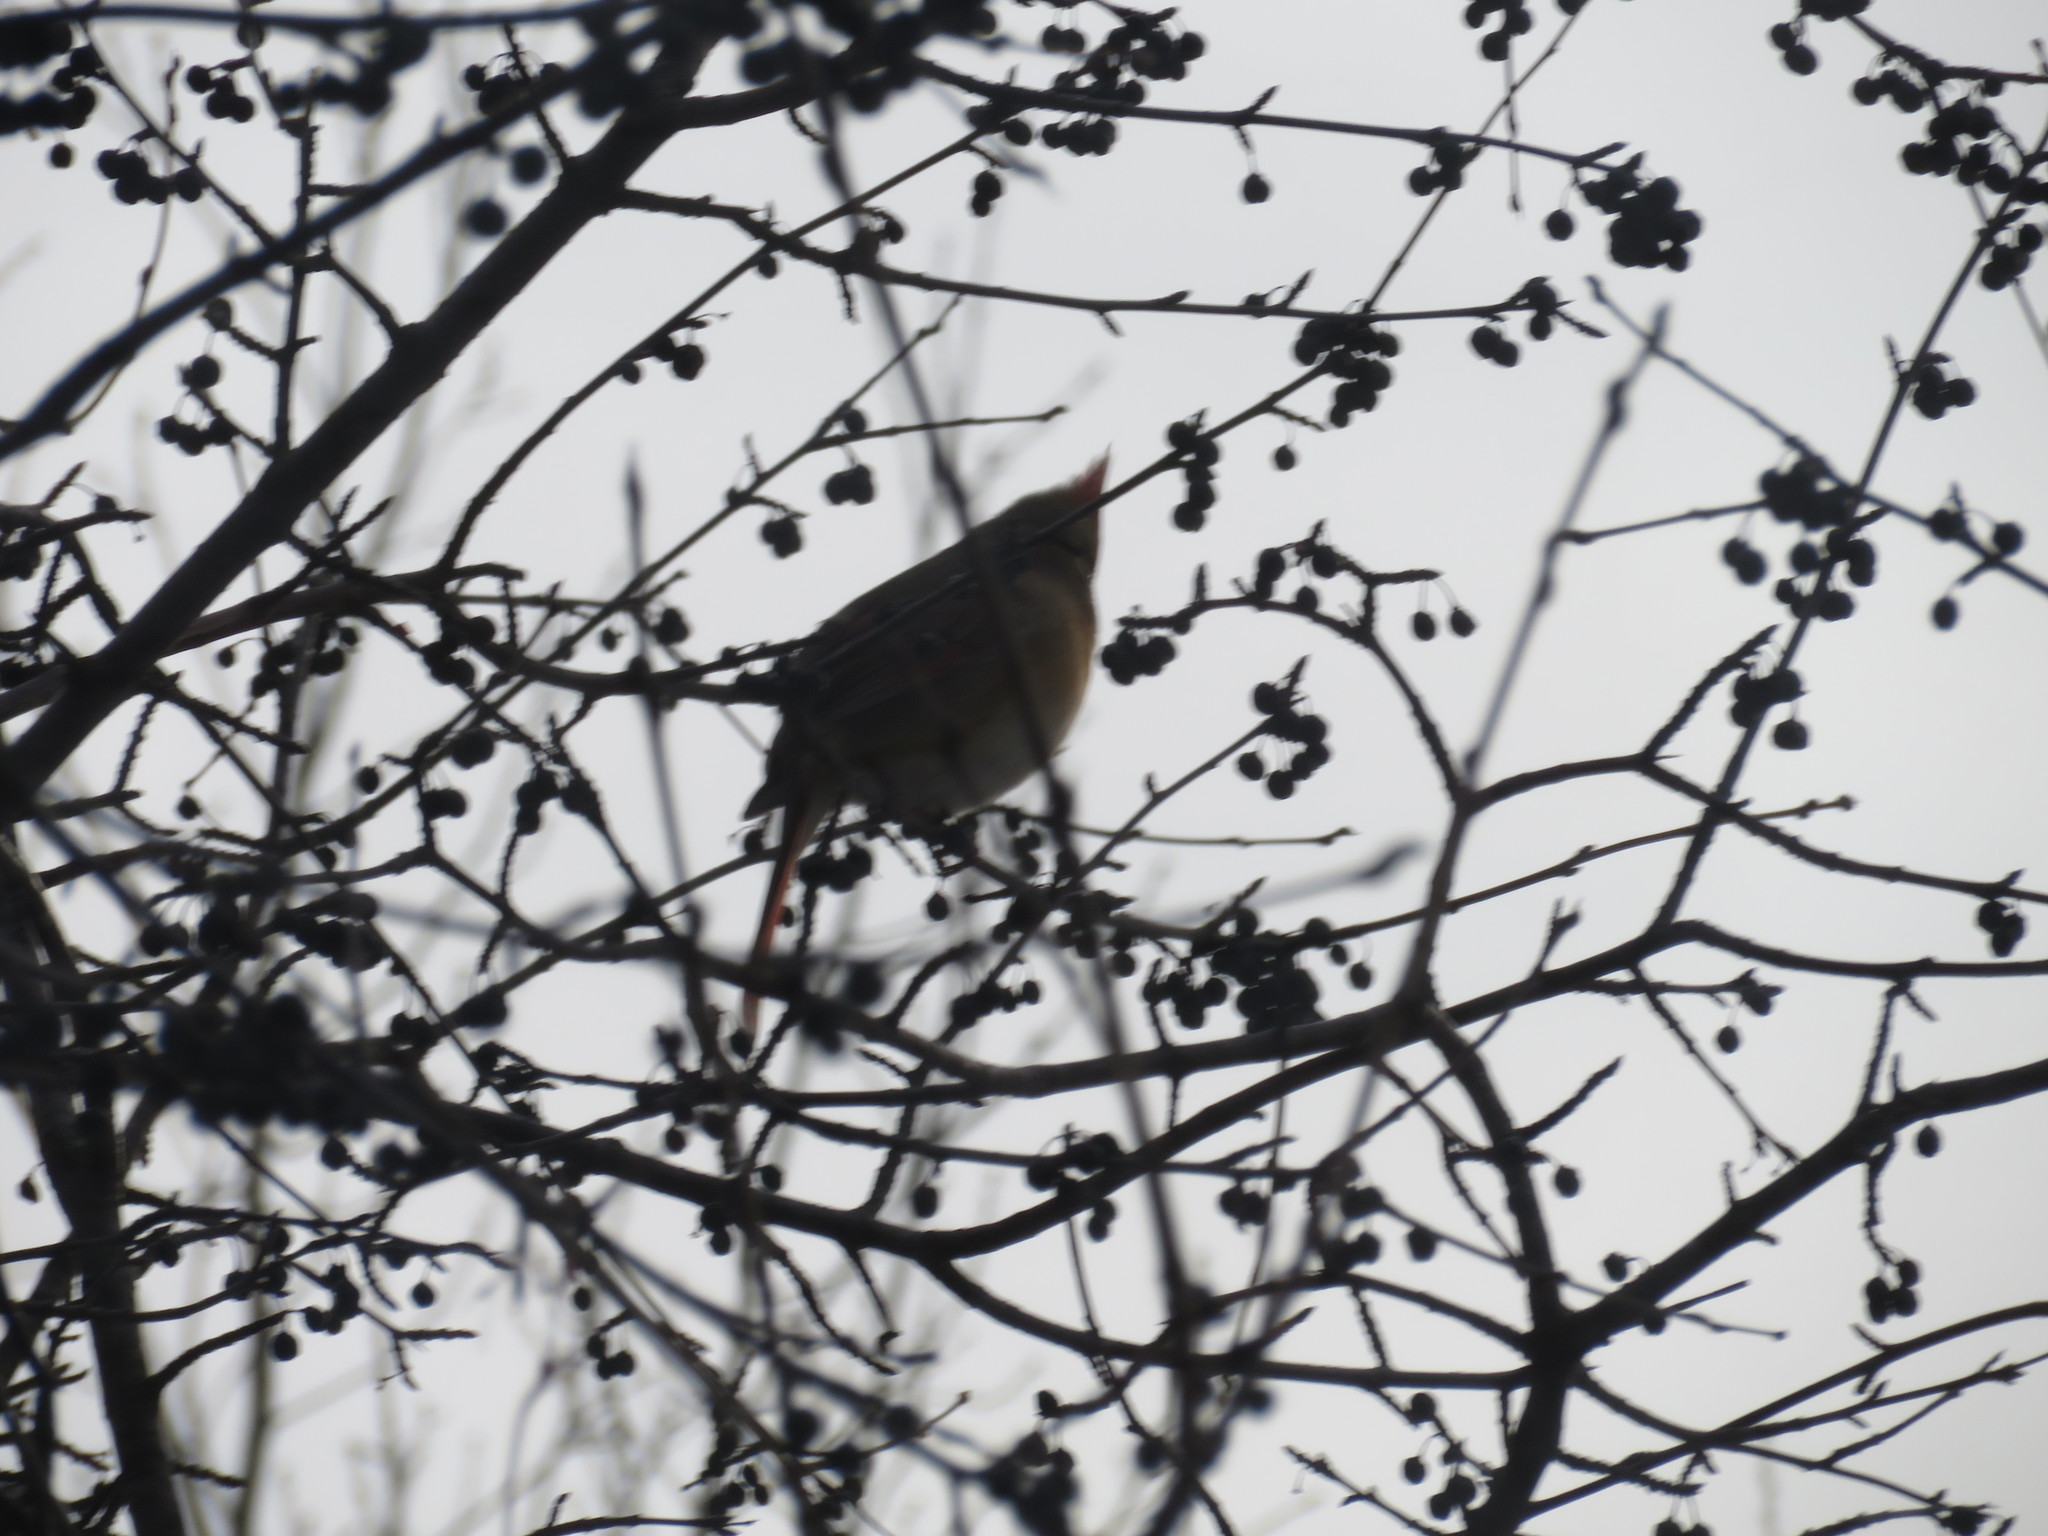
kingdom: Animalia
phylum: Chordata
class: Aves
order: Passeriformes
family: Cardinalidae
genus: Cardinalis
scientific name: Cardinalis cardinalis
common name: Northern cardinal
